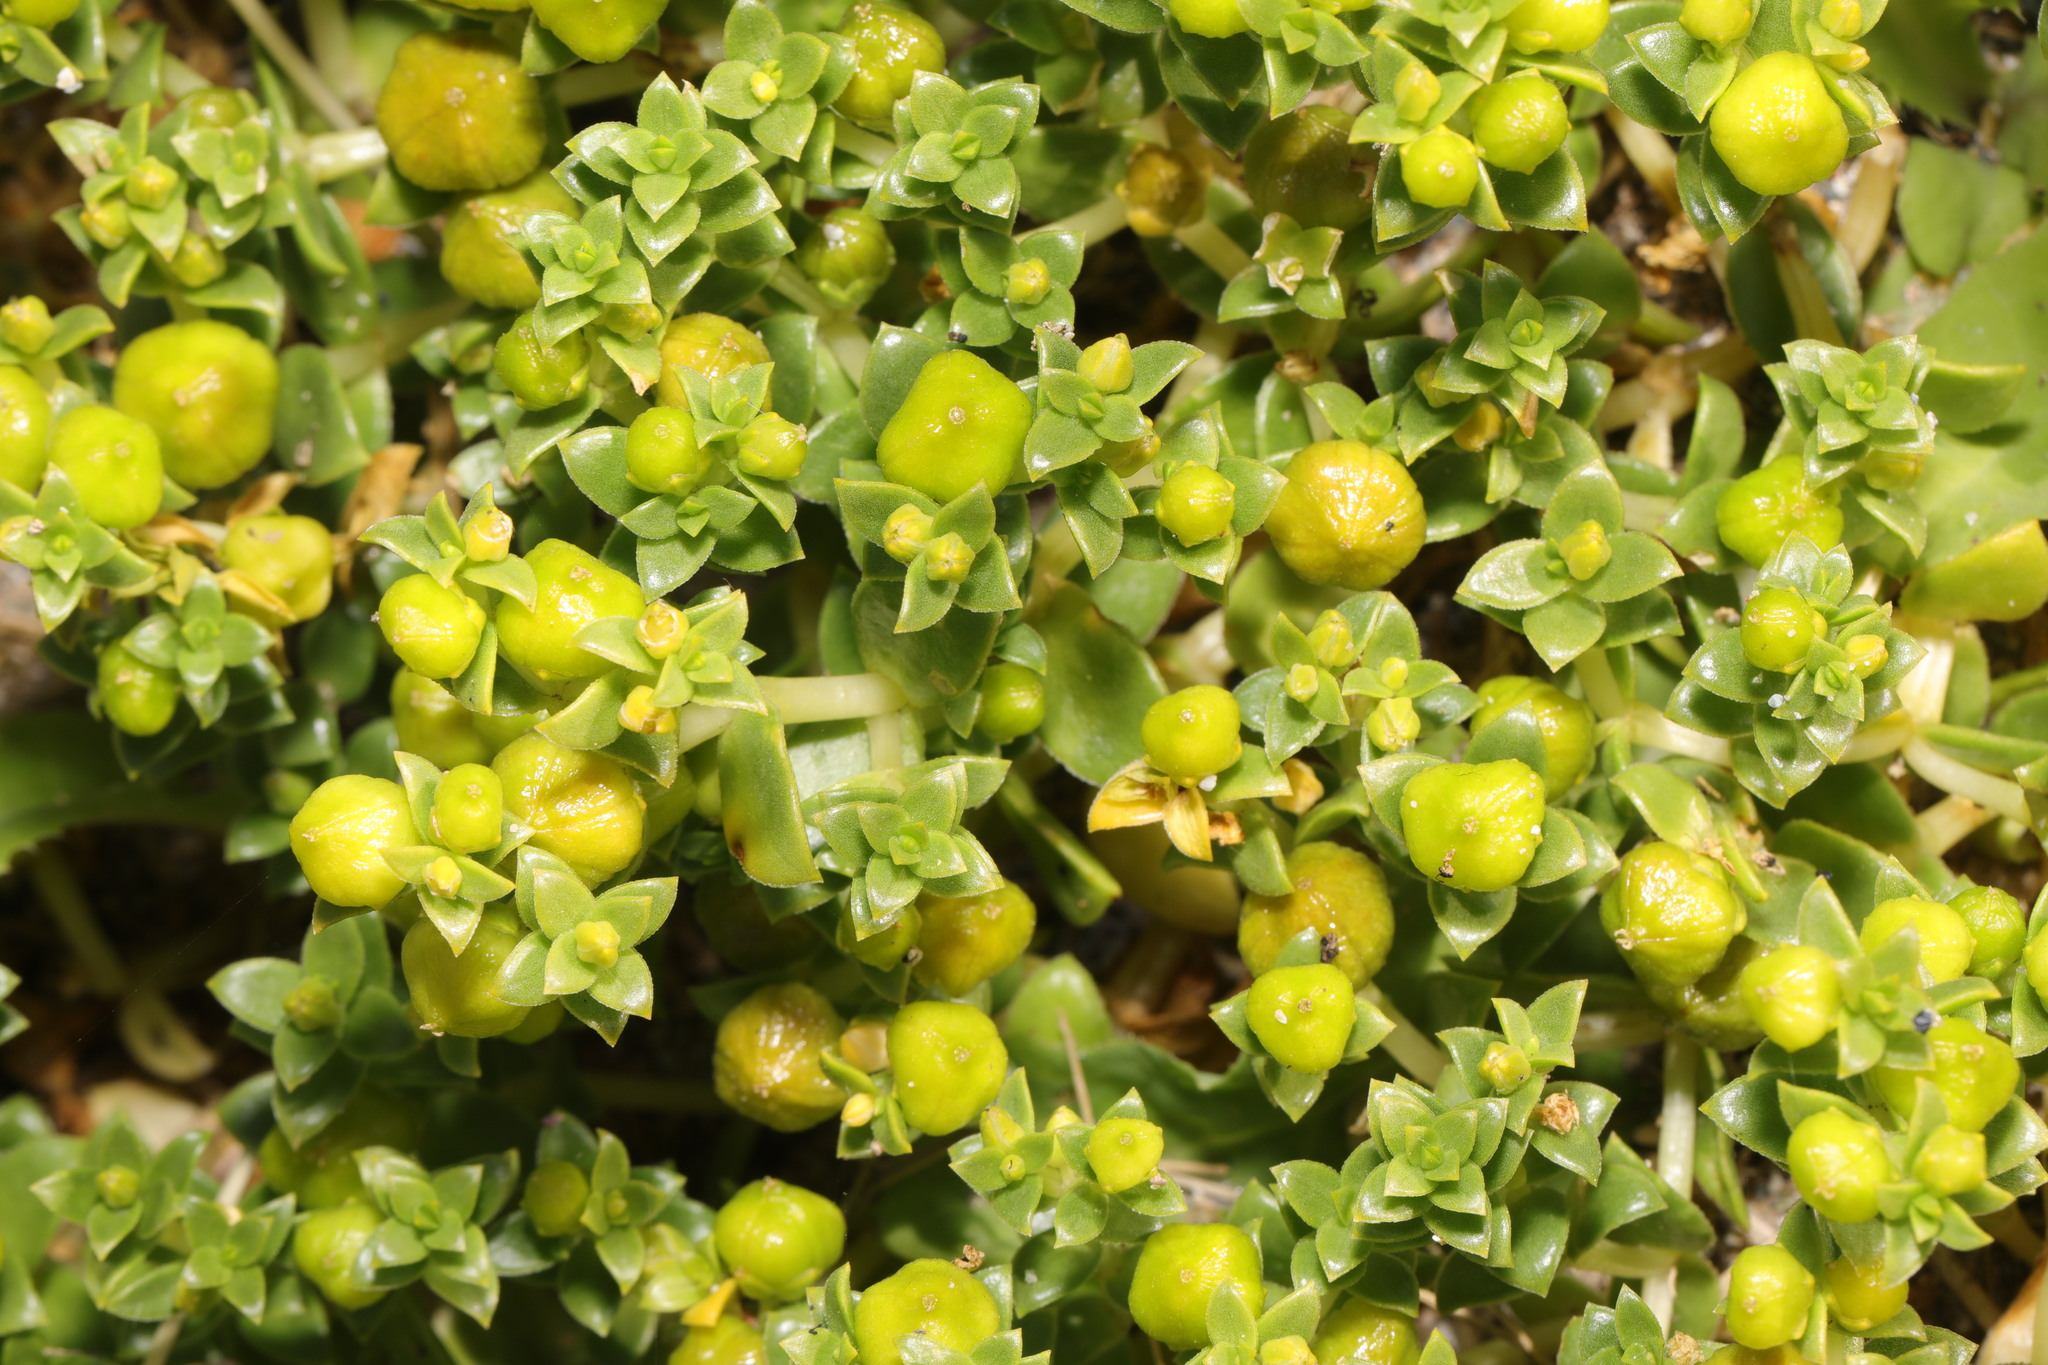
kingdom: Plantae
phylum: Tracheophyta
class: Magnoliopsida
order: Caryophyllales
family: Caryophyllaceae
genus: Honckenya
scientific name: Honckenya peploides
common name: Sea sandwort
